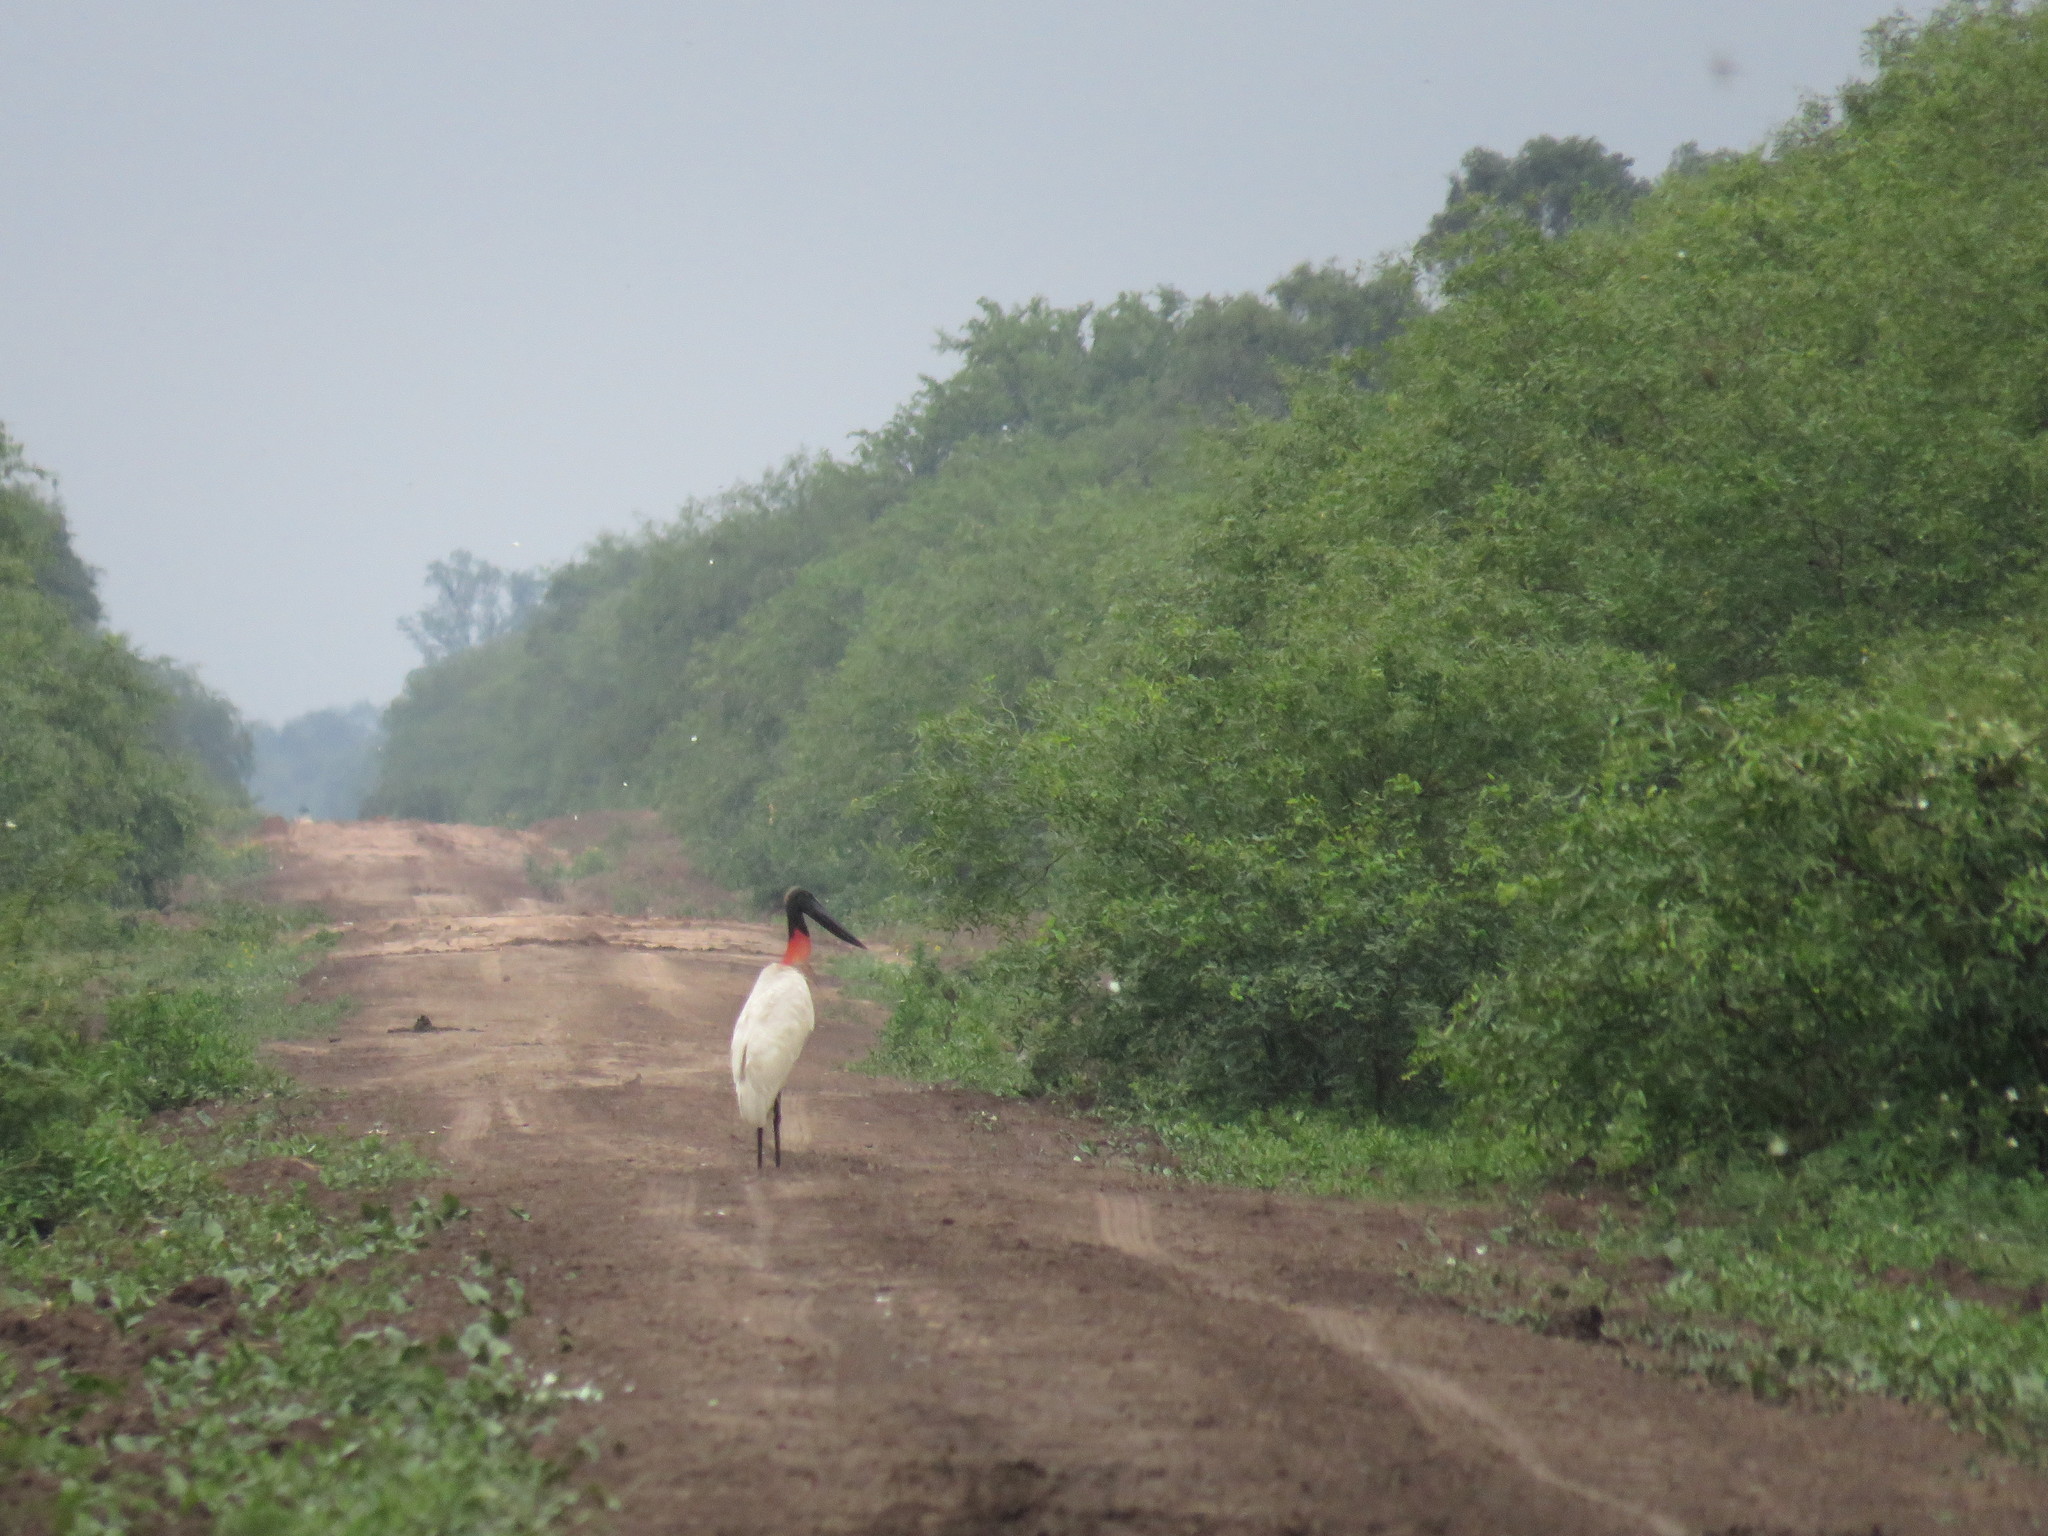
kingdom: Animalia
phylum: Chordata
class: Aves
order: Ciconiiformes
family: Ciconiidae
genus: Jabiru
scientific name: Jabiru mycteria
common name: Jabiru
